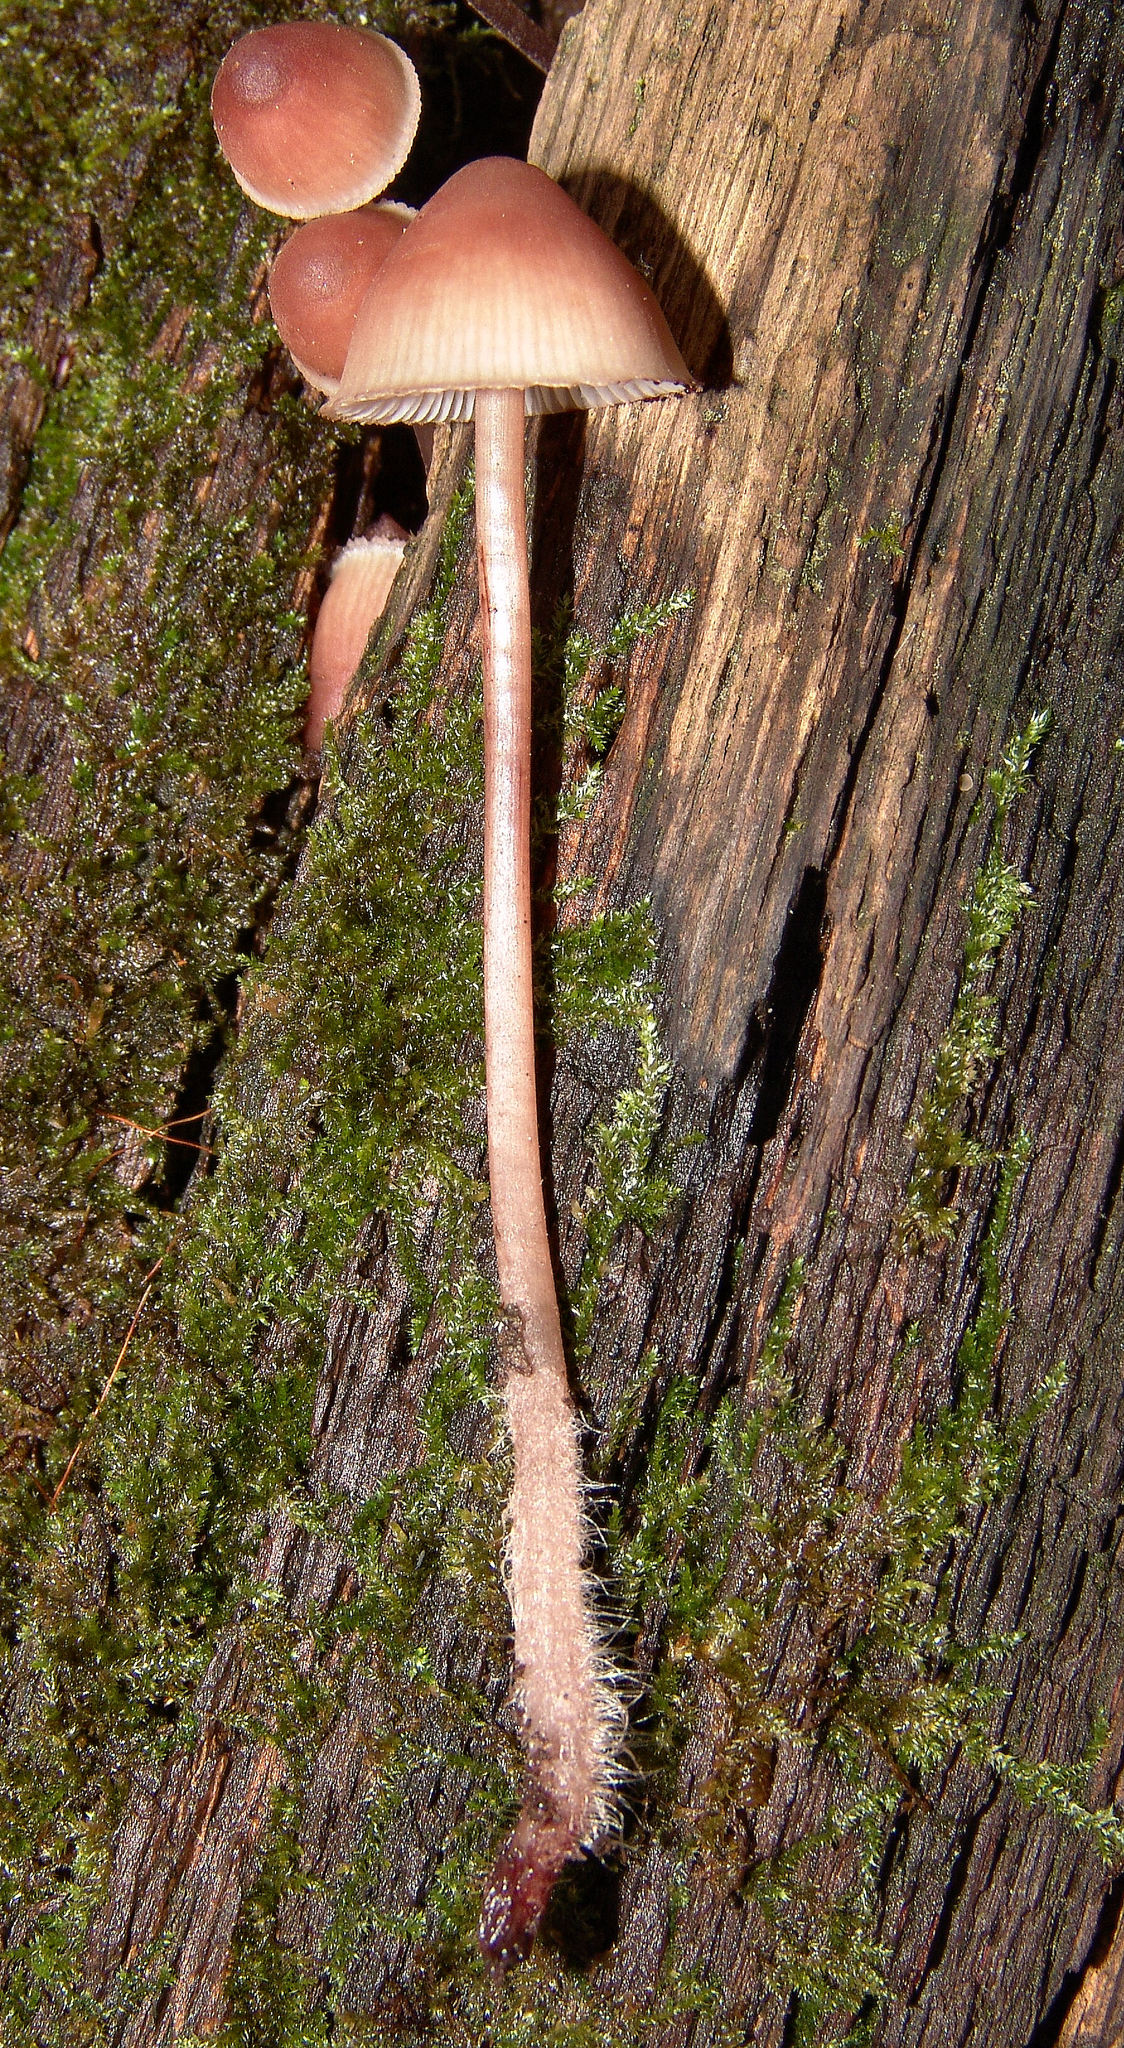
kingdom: Fungi
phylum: Basidiomycota
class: Agaricomycetes
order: Agaricales
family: Mycenaceae
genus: Mycena
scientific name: Mycena haematopus
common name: Burgundydrop bonnet
